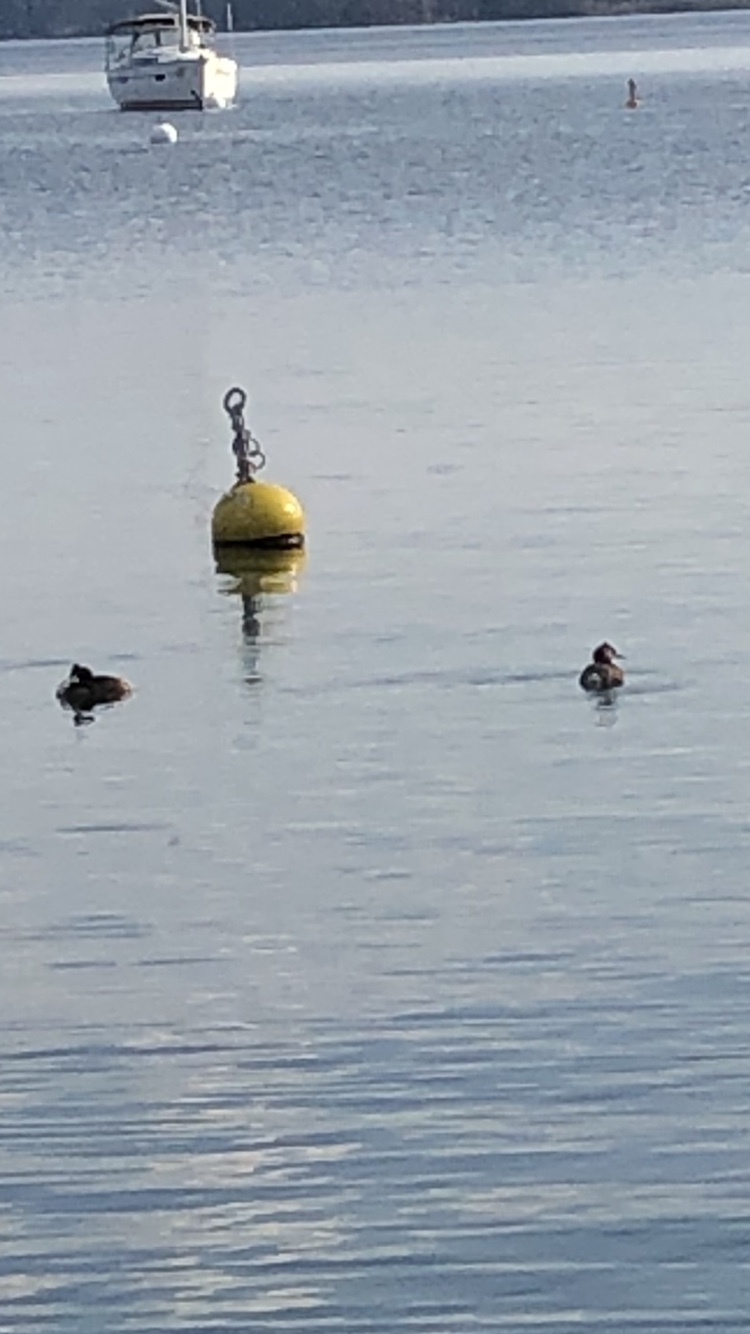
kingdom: Animalia
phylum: Chordata
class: Aves
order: Podicipediformes
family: Podicipedidae
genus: Podiceps
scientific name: Podiceps cristatus
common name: Great crested grebe
